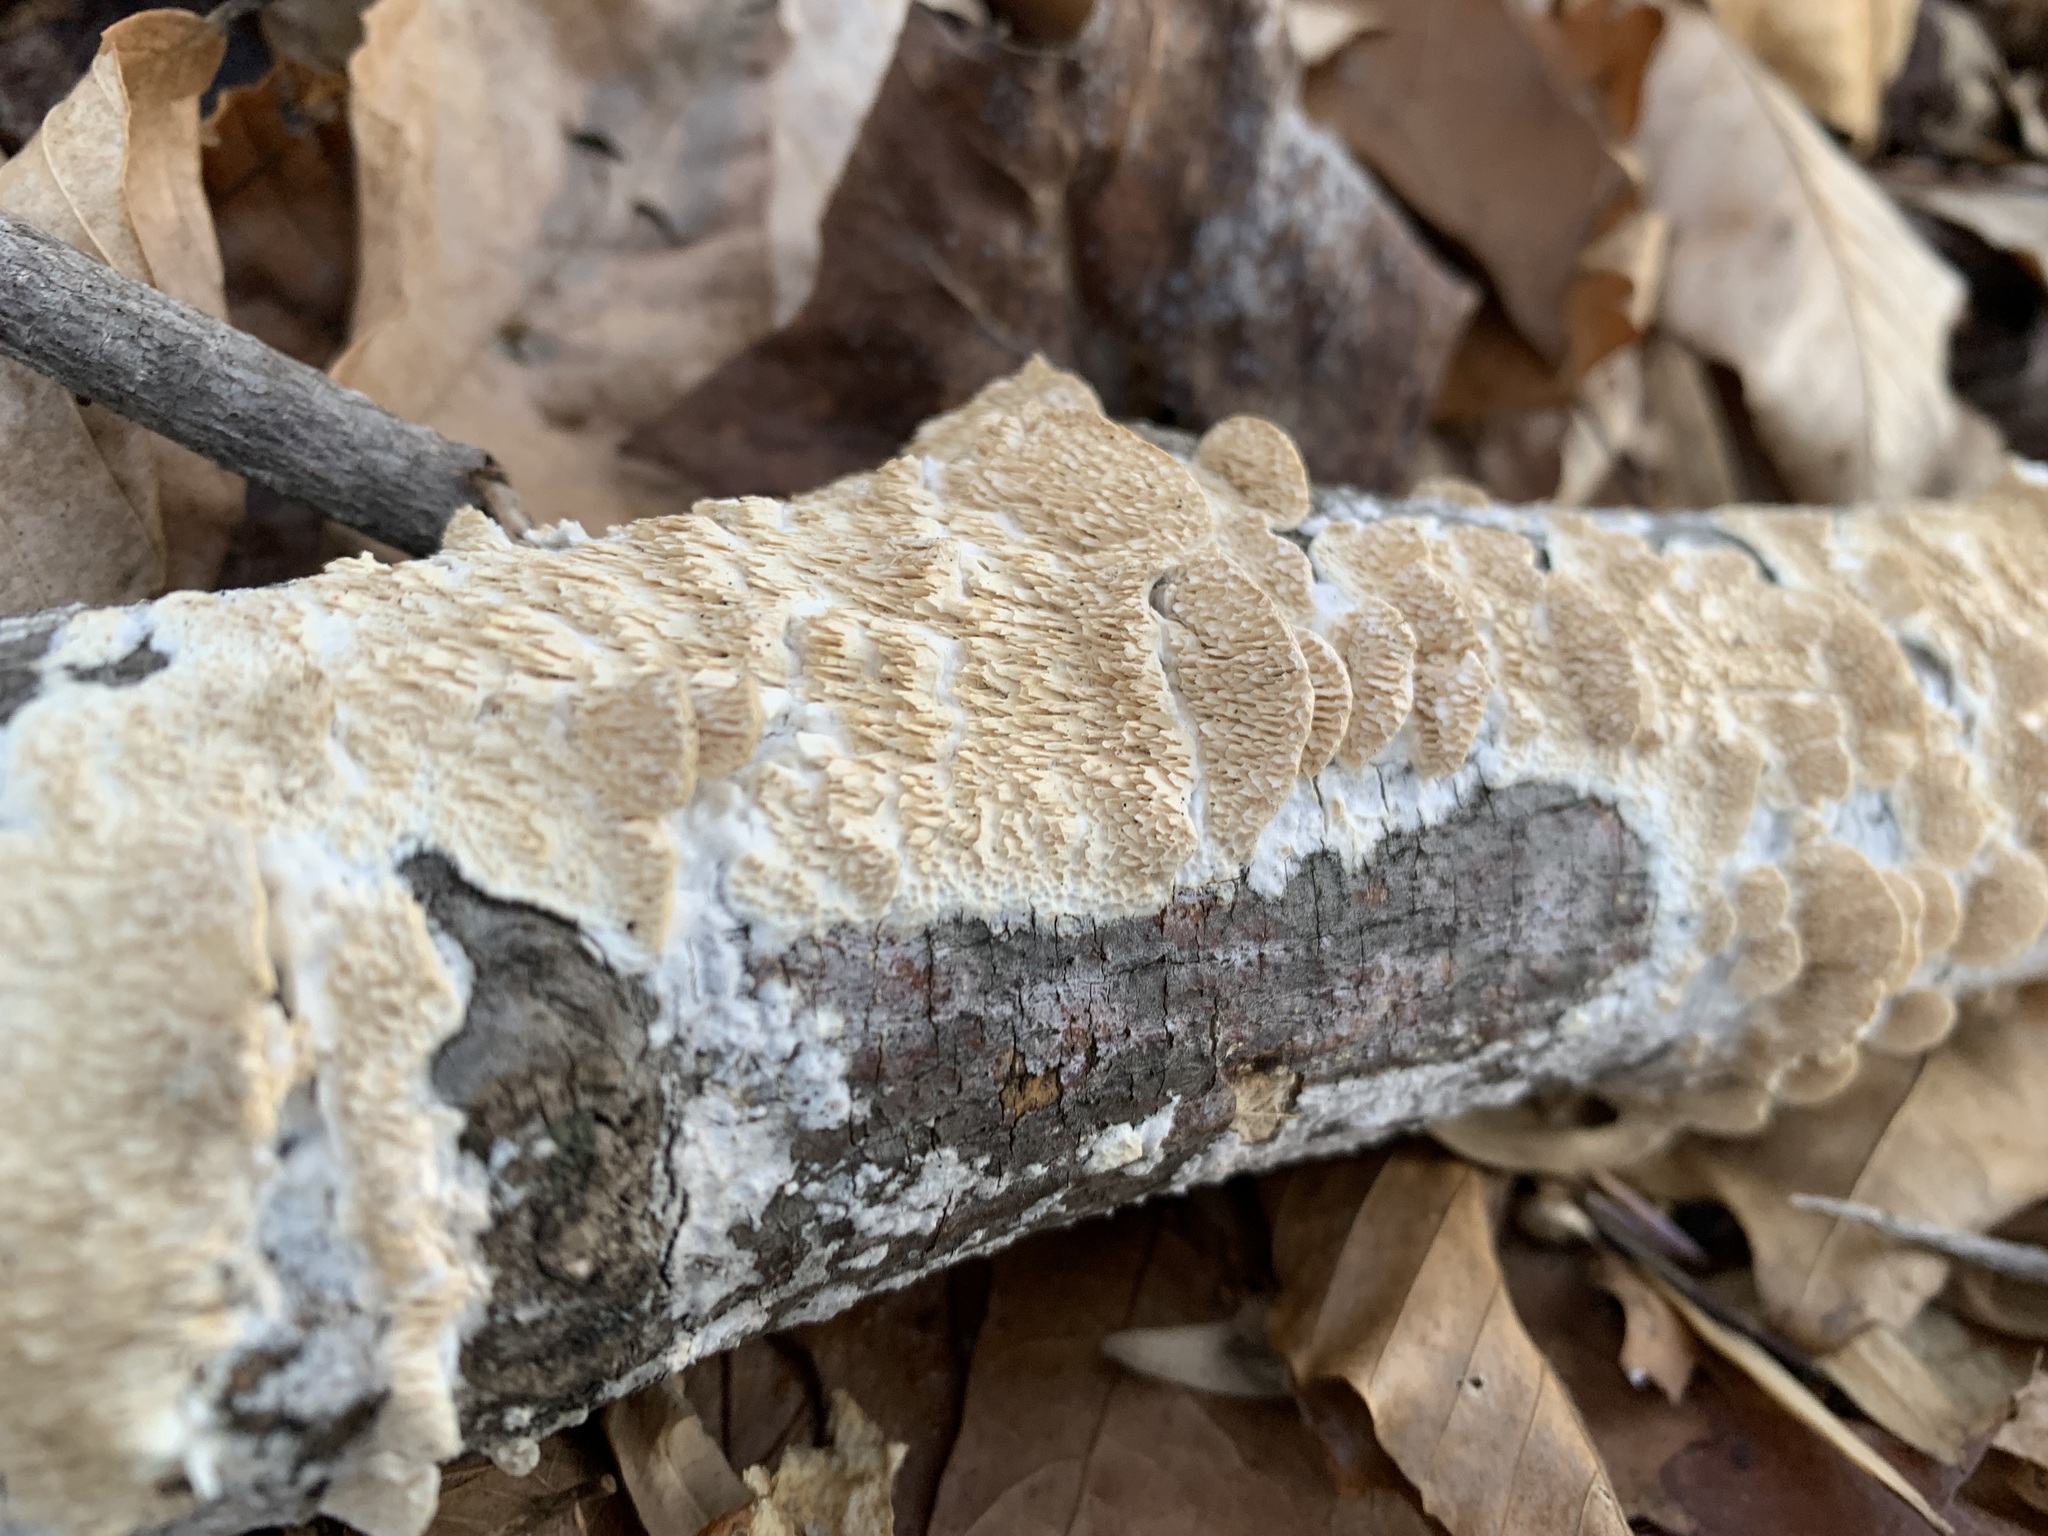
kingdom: Fungi
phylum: Basidiomycota
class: Agaricomycetes
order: Polyporales
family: Irpicaceae
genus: Irpex
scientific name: Irpex lacteus
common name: Milk-white toothed polypore
